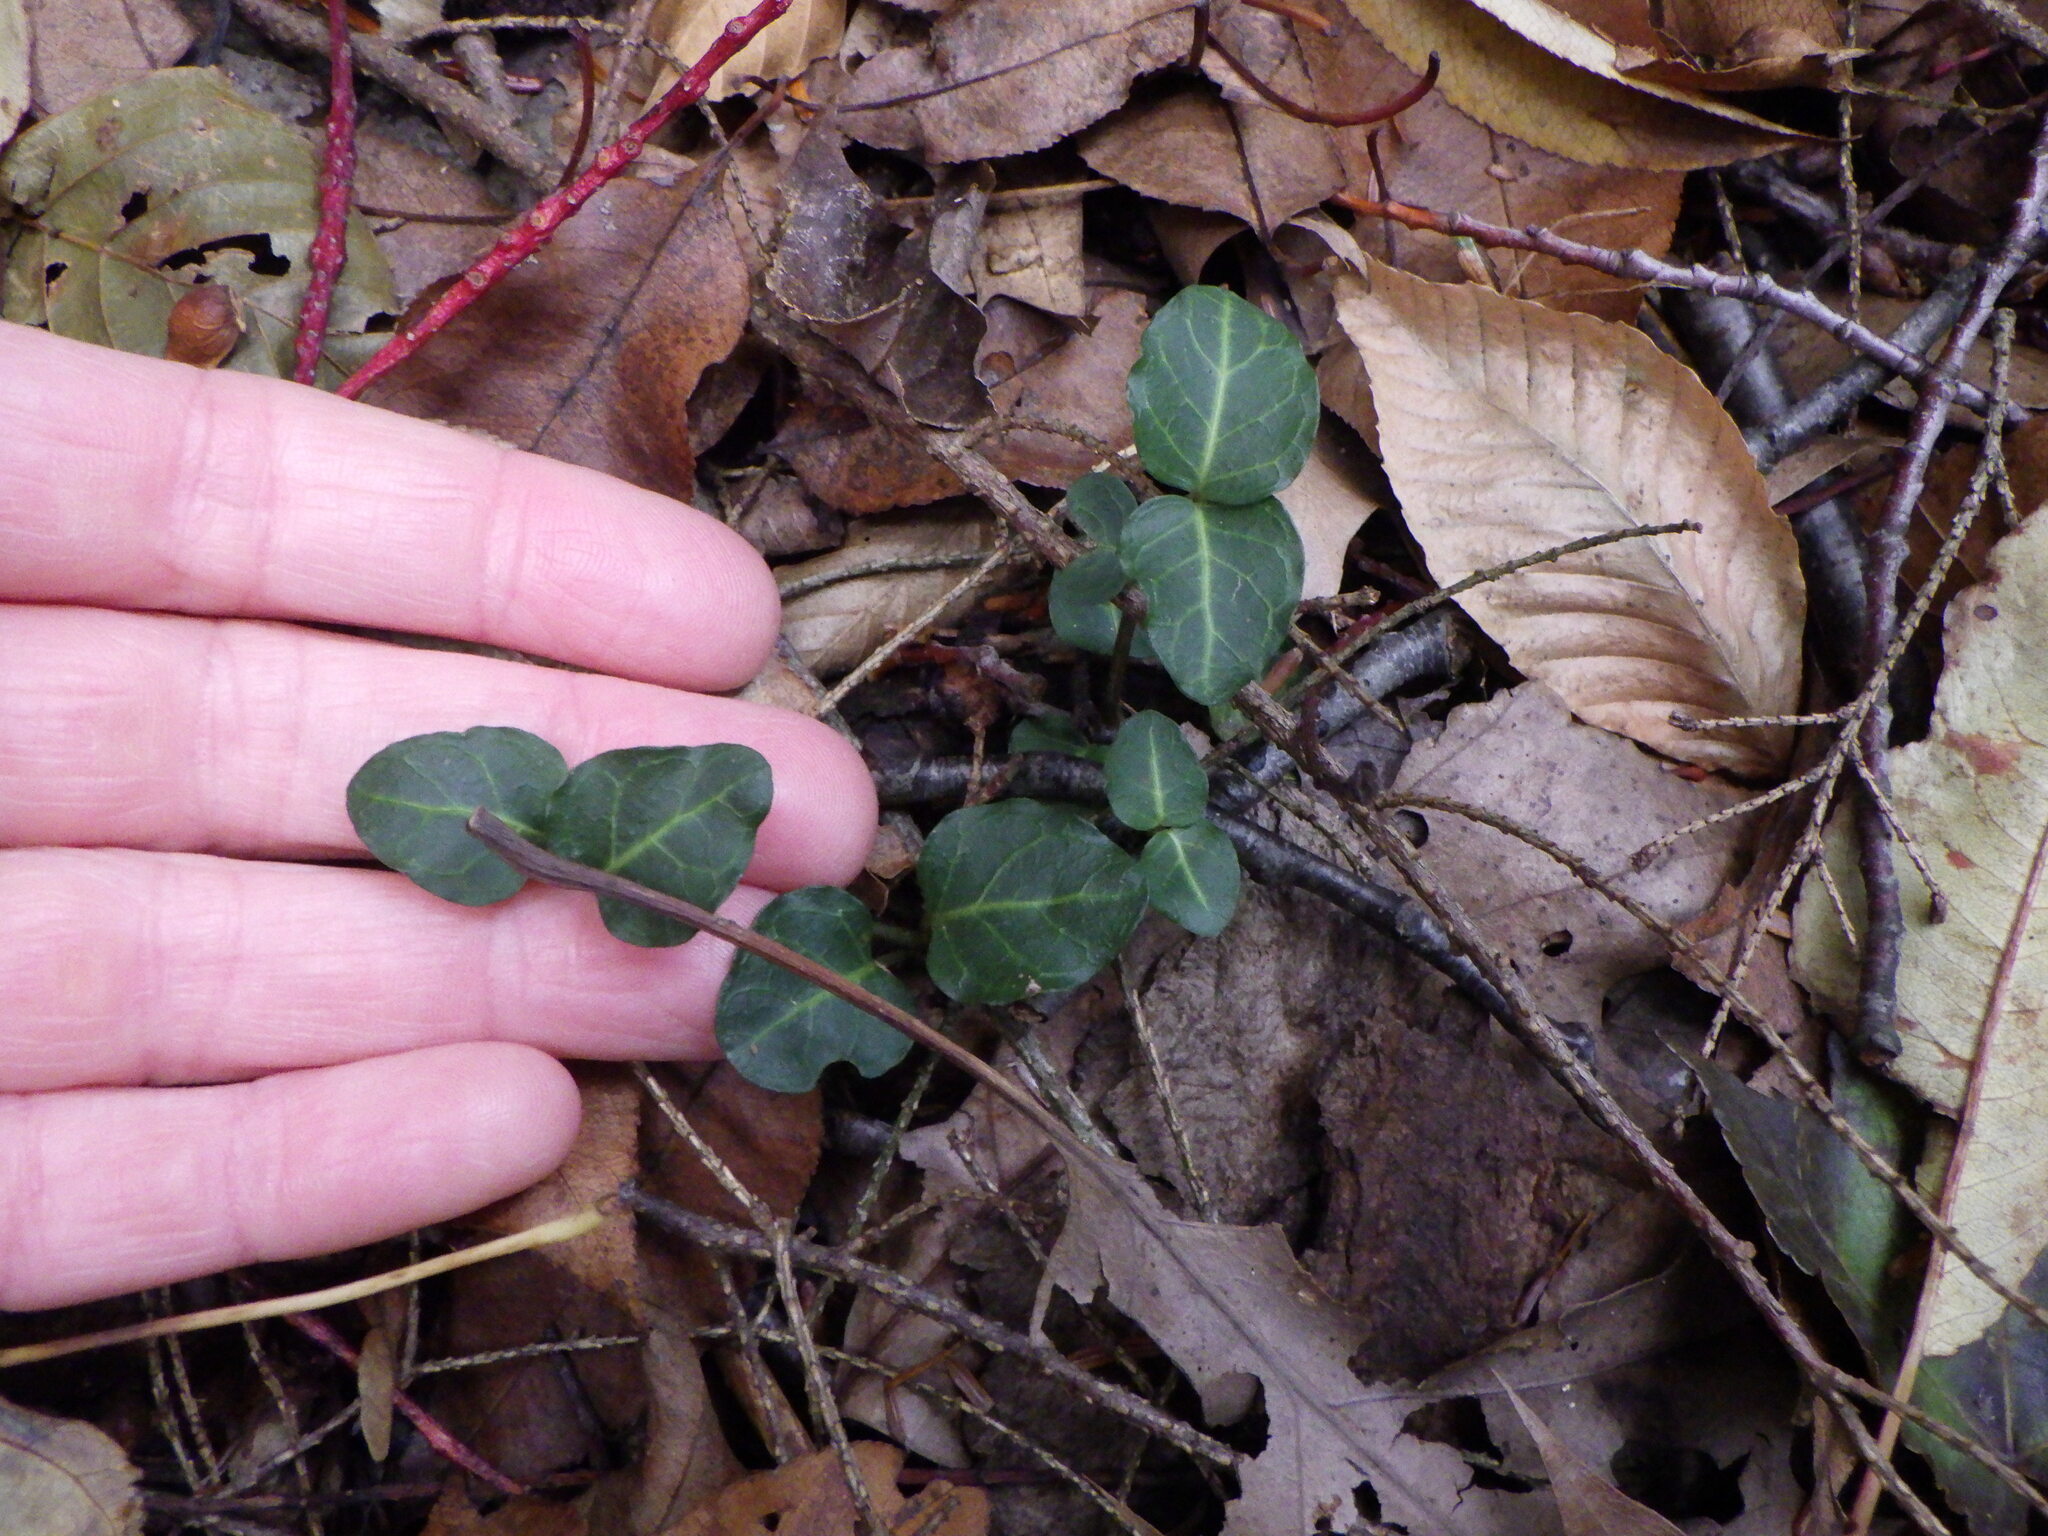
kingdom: Plantae
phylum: Tracheophyta
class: Magnoliopsida
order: Gentianales
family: Rubiaceae
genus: Mitchella
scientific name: Mitchella repens
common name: Partridge-berry
